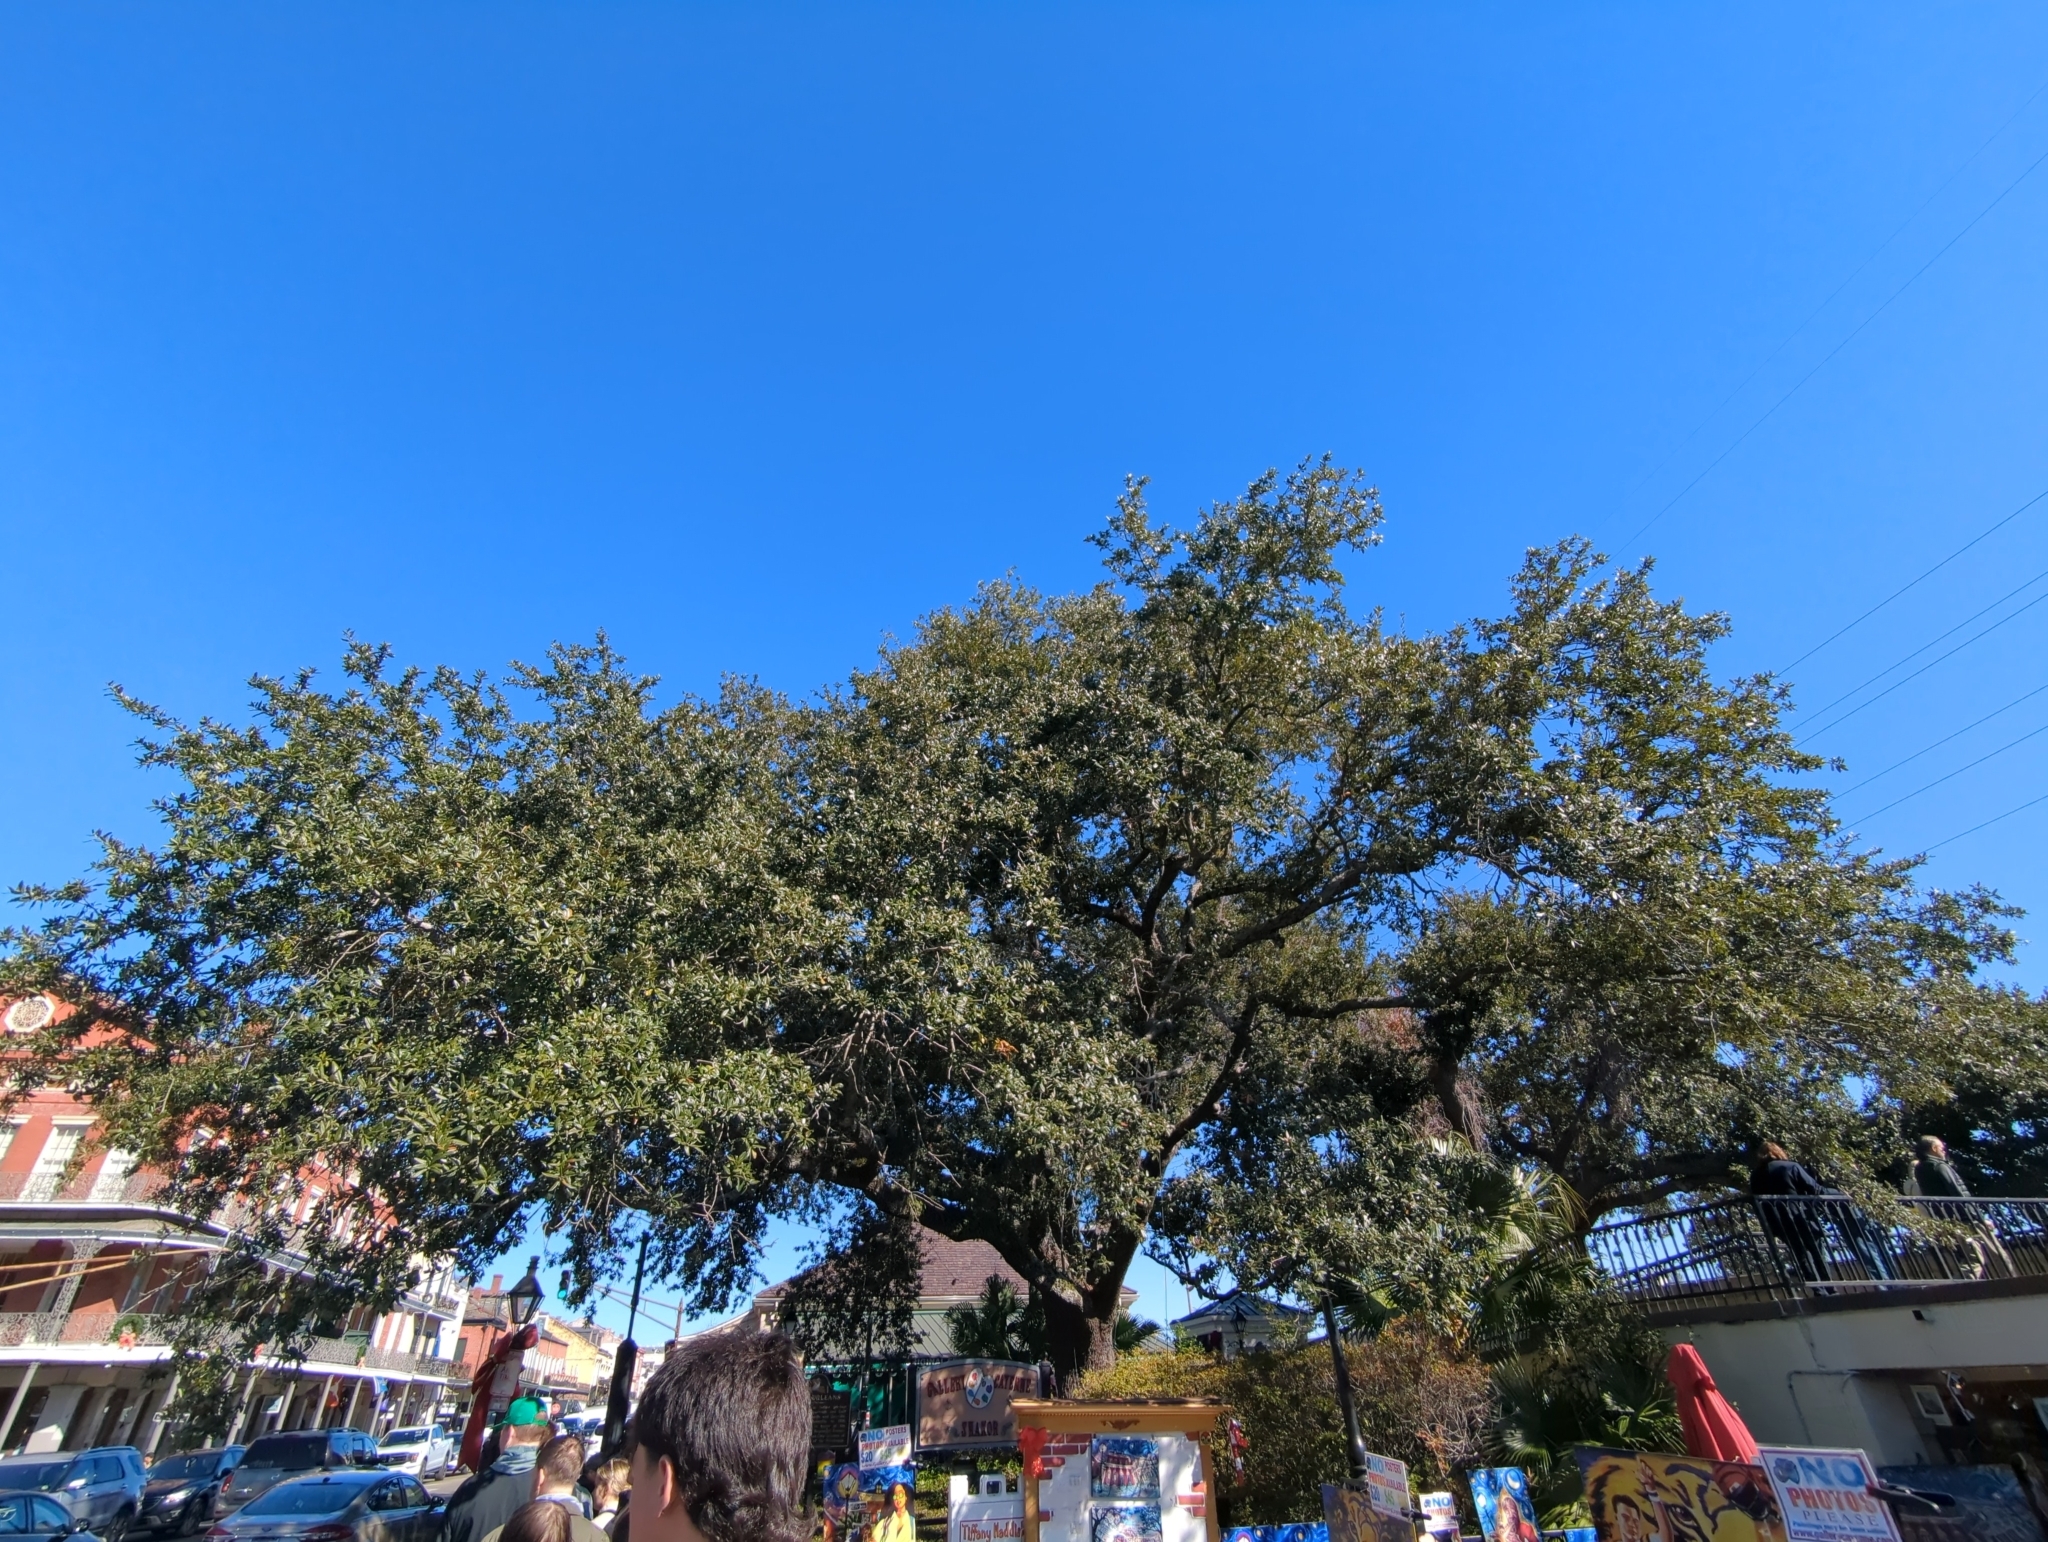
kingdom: Plantae
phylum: Tracheophyta
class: Magnoliopsida
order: Fagales
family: Fagaceae
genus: Quercus
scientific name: Quercus virginiana
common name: Southern live oak
